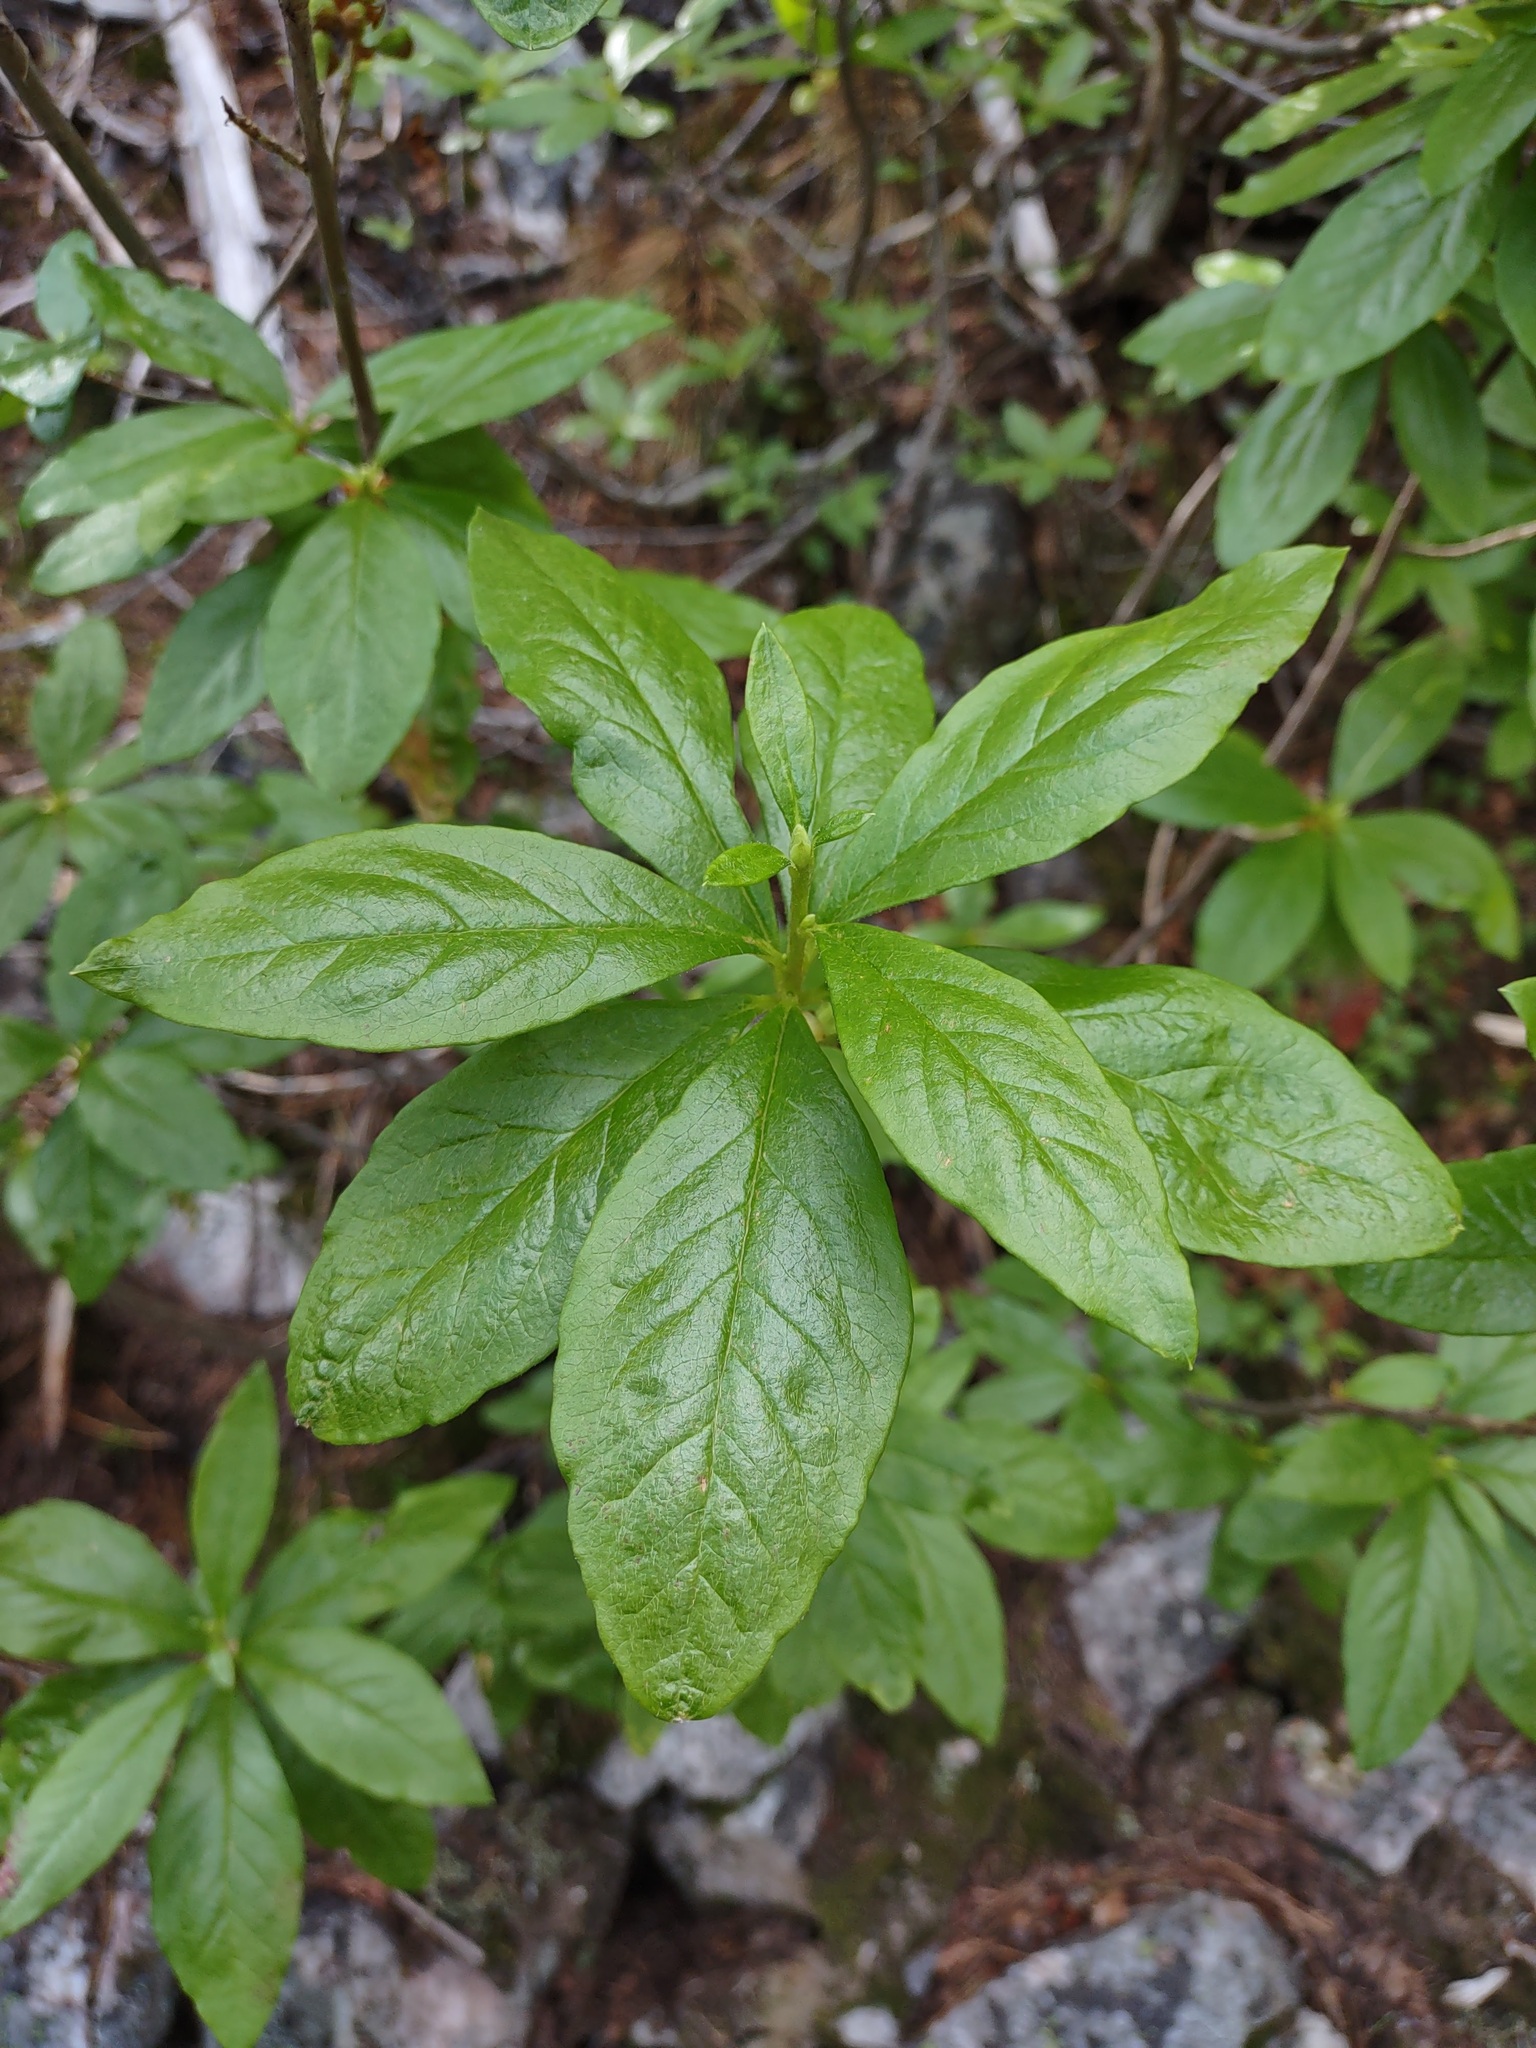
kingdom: Plantae
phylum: Tracheophyta
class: Magnoliopsida
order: Ericales
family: Ericaceae
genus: Rhododendron
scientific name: Rhododendron albiflorum
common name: White rhododendron
